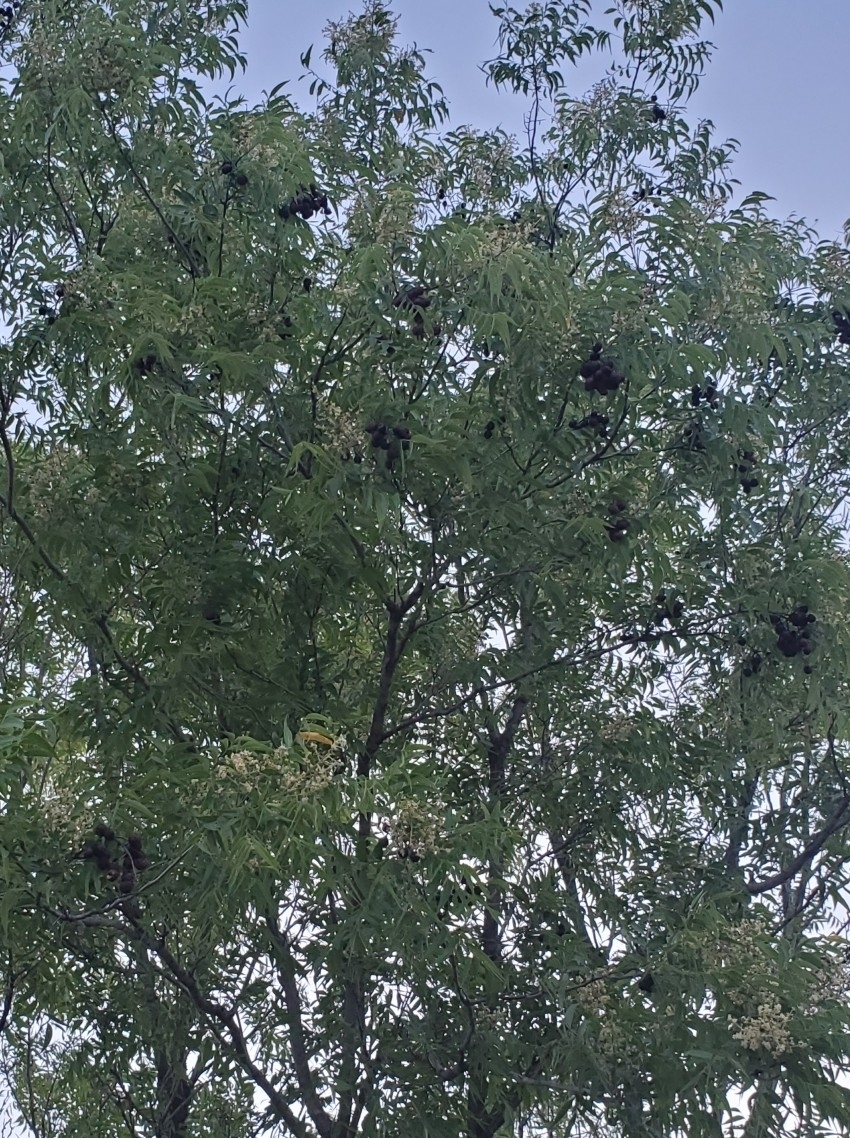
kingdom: Plantae
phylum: Tracheophyta
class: Magnoliopsida
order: Sapindales
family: Sapindaceae
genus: Sapindus
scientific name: Sapindus drummondii
